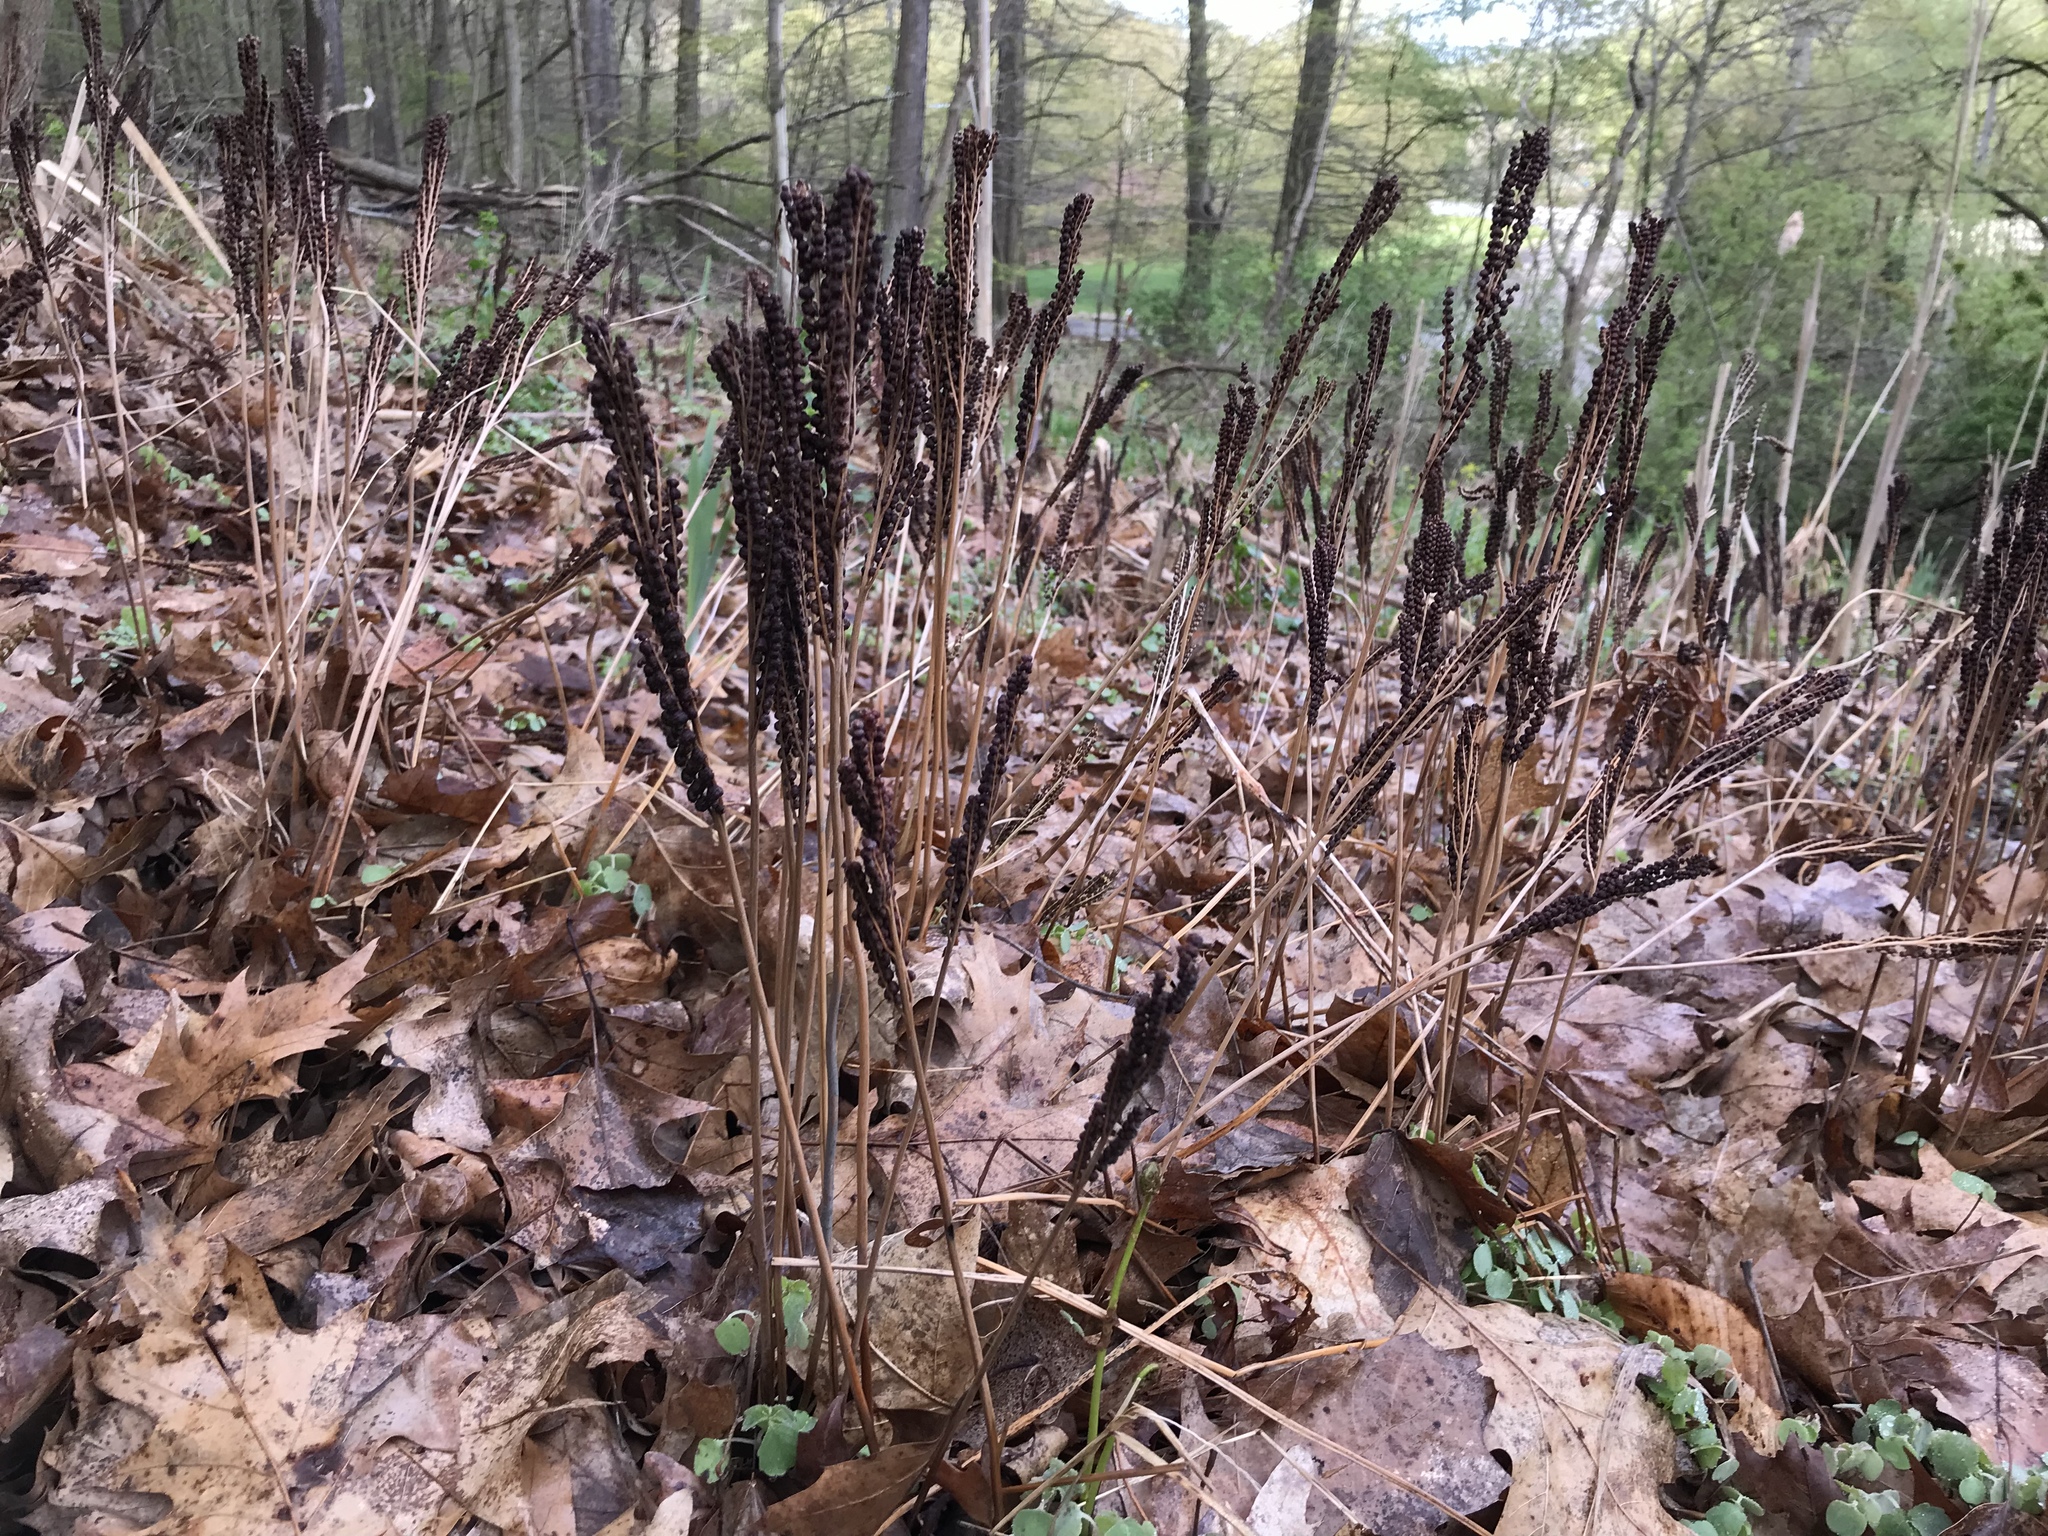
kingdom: Plantae
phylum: Tracheophyta
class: Polypodiopsida
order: Polypodiales
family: Onocleaceae
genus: Onoclea
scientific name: Onoclea sensibilis
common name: Sensitive fern
